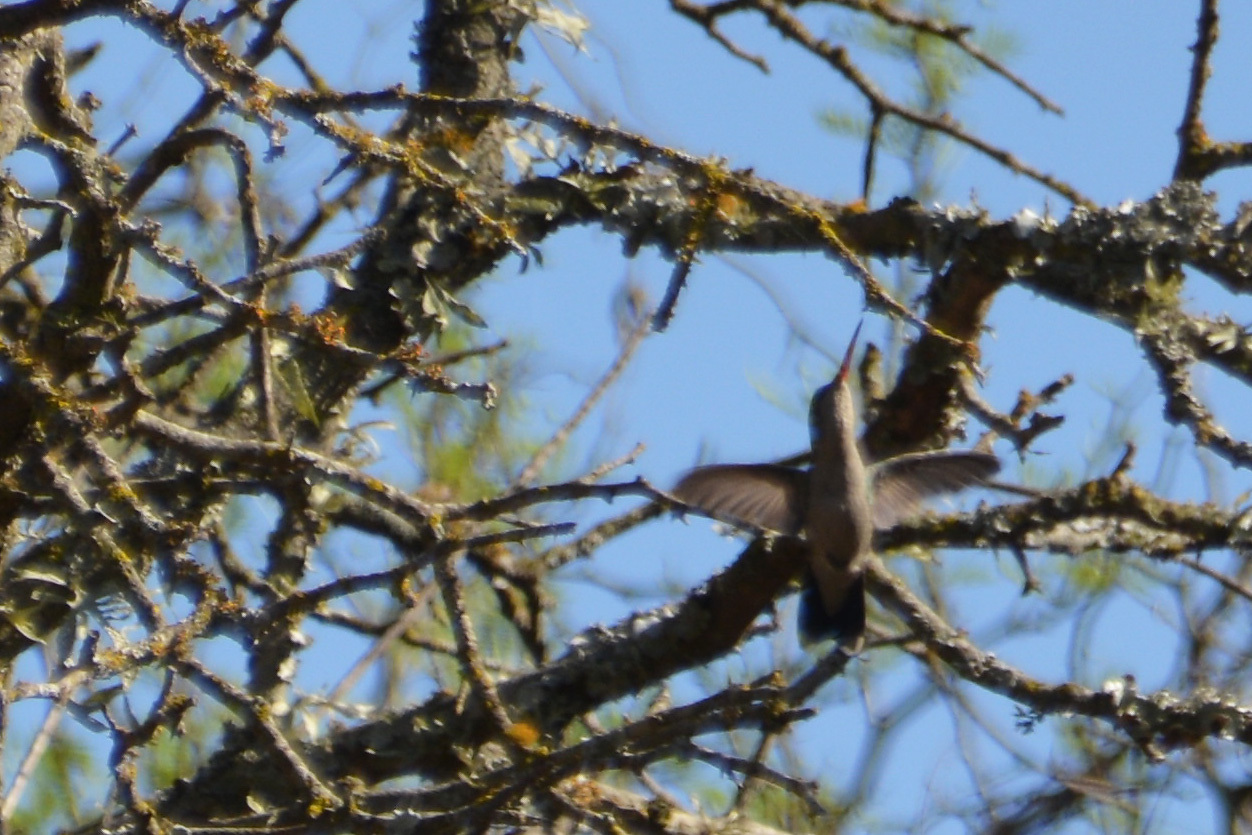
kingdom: Animalia
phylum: Chordata
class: Aves
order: Apodiformes
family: Trochilidae
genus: Chlorostilbon
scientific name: Chlorostilbon lucidus
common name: Glittering-bellied emerald
